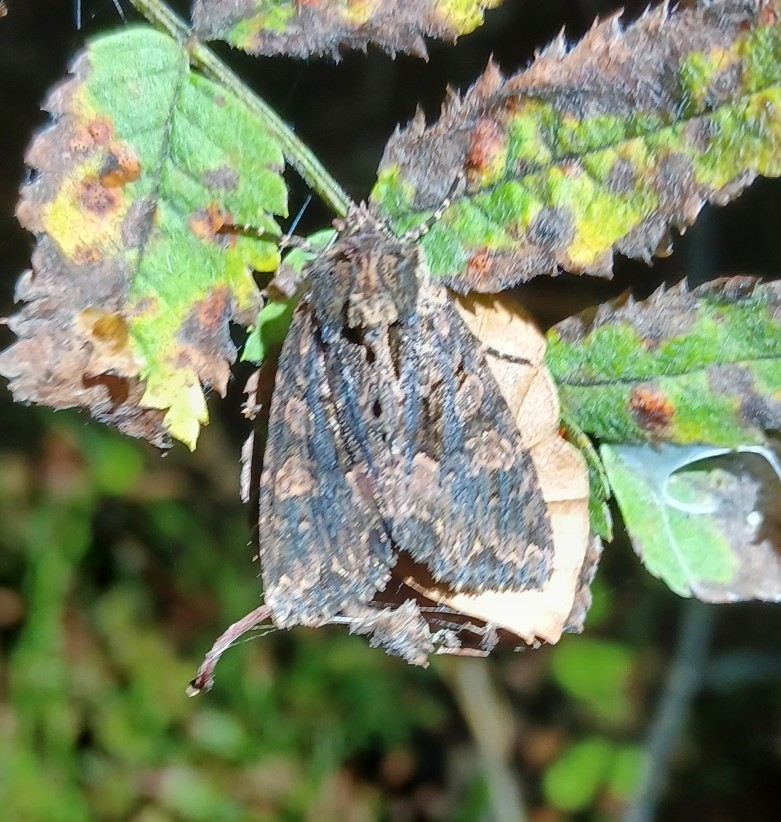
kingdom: Animalia
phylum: Arthropoda
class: Insecta
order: Lepidoptera
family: Noctuidae
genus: Mniotype
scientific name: Mniotype satura
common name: Beautiful arches
